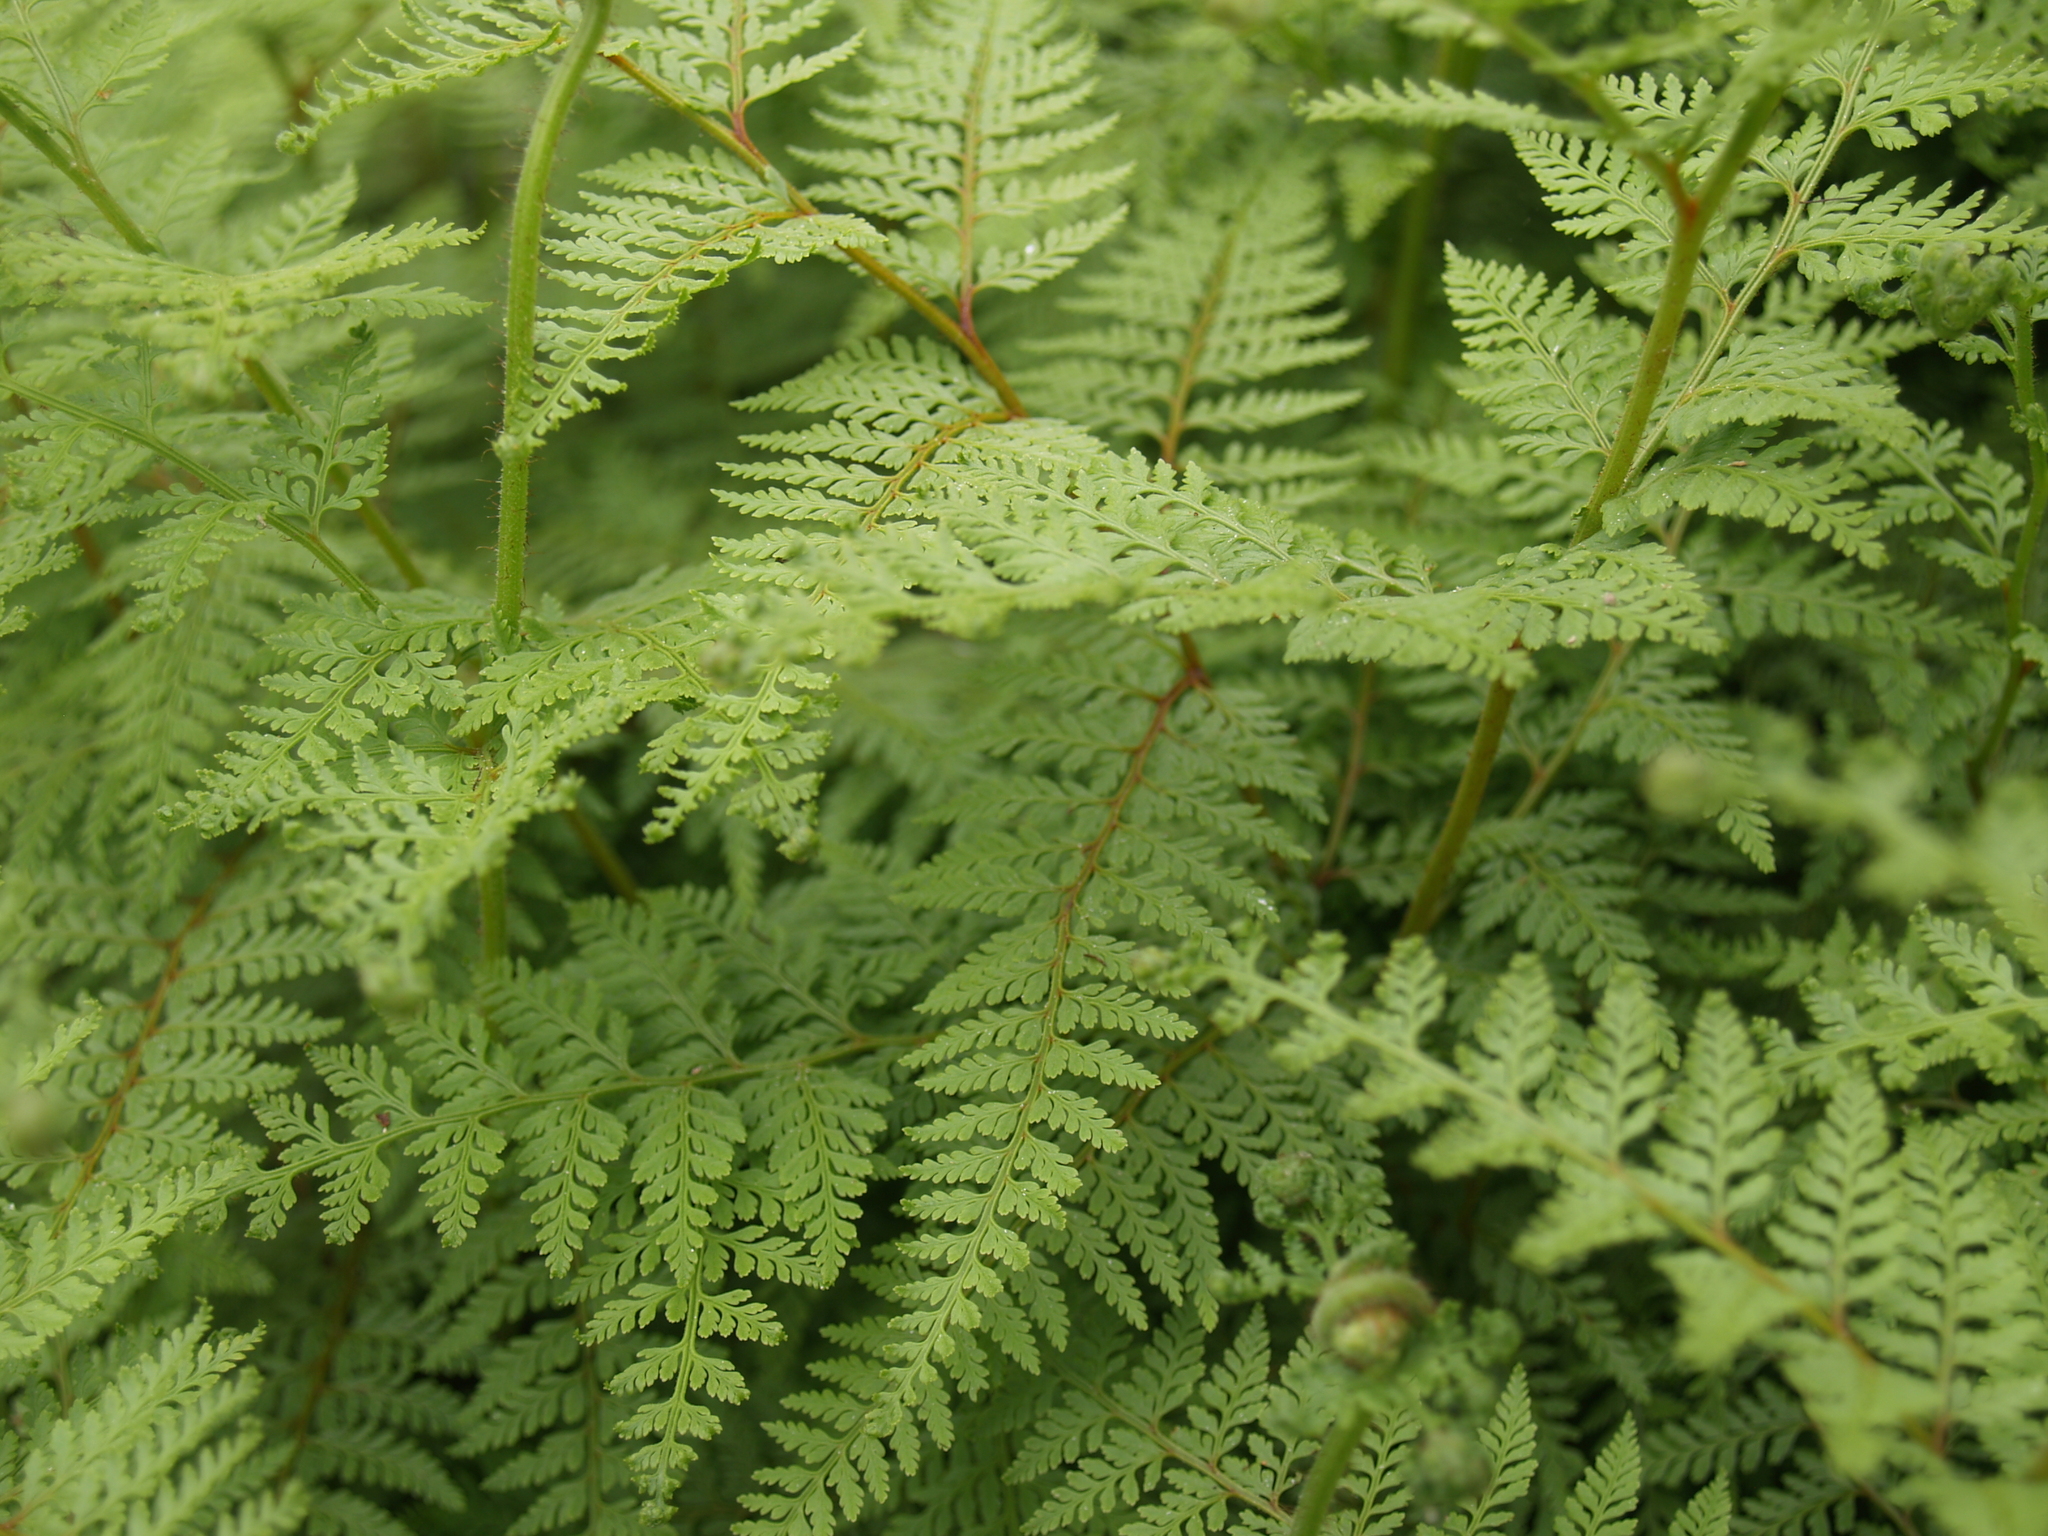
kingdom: Plantae
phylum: Tracheophyta
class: Polypodiopsida
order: Polypodiales
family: Dennstaedtiaceae
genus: Paesia
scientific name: Paesia scaberula
